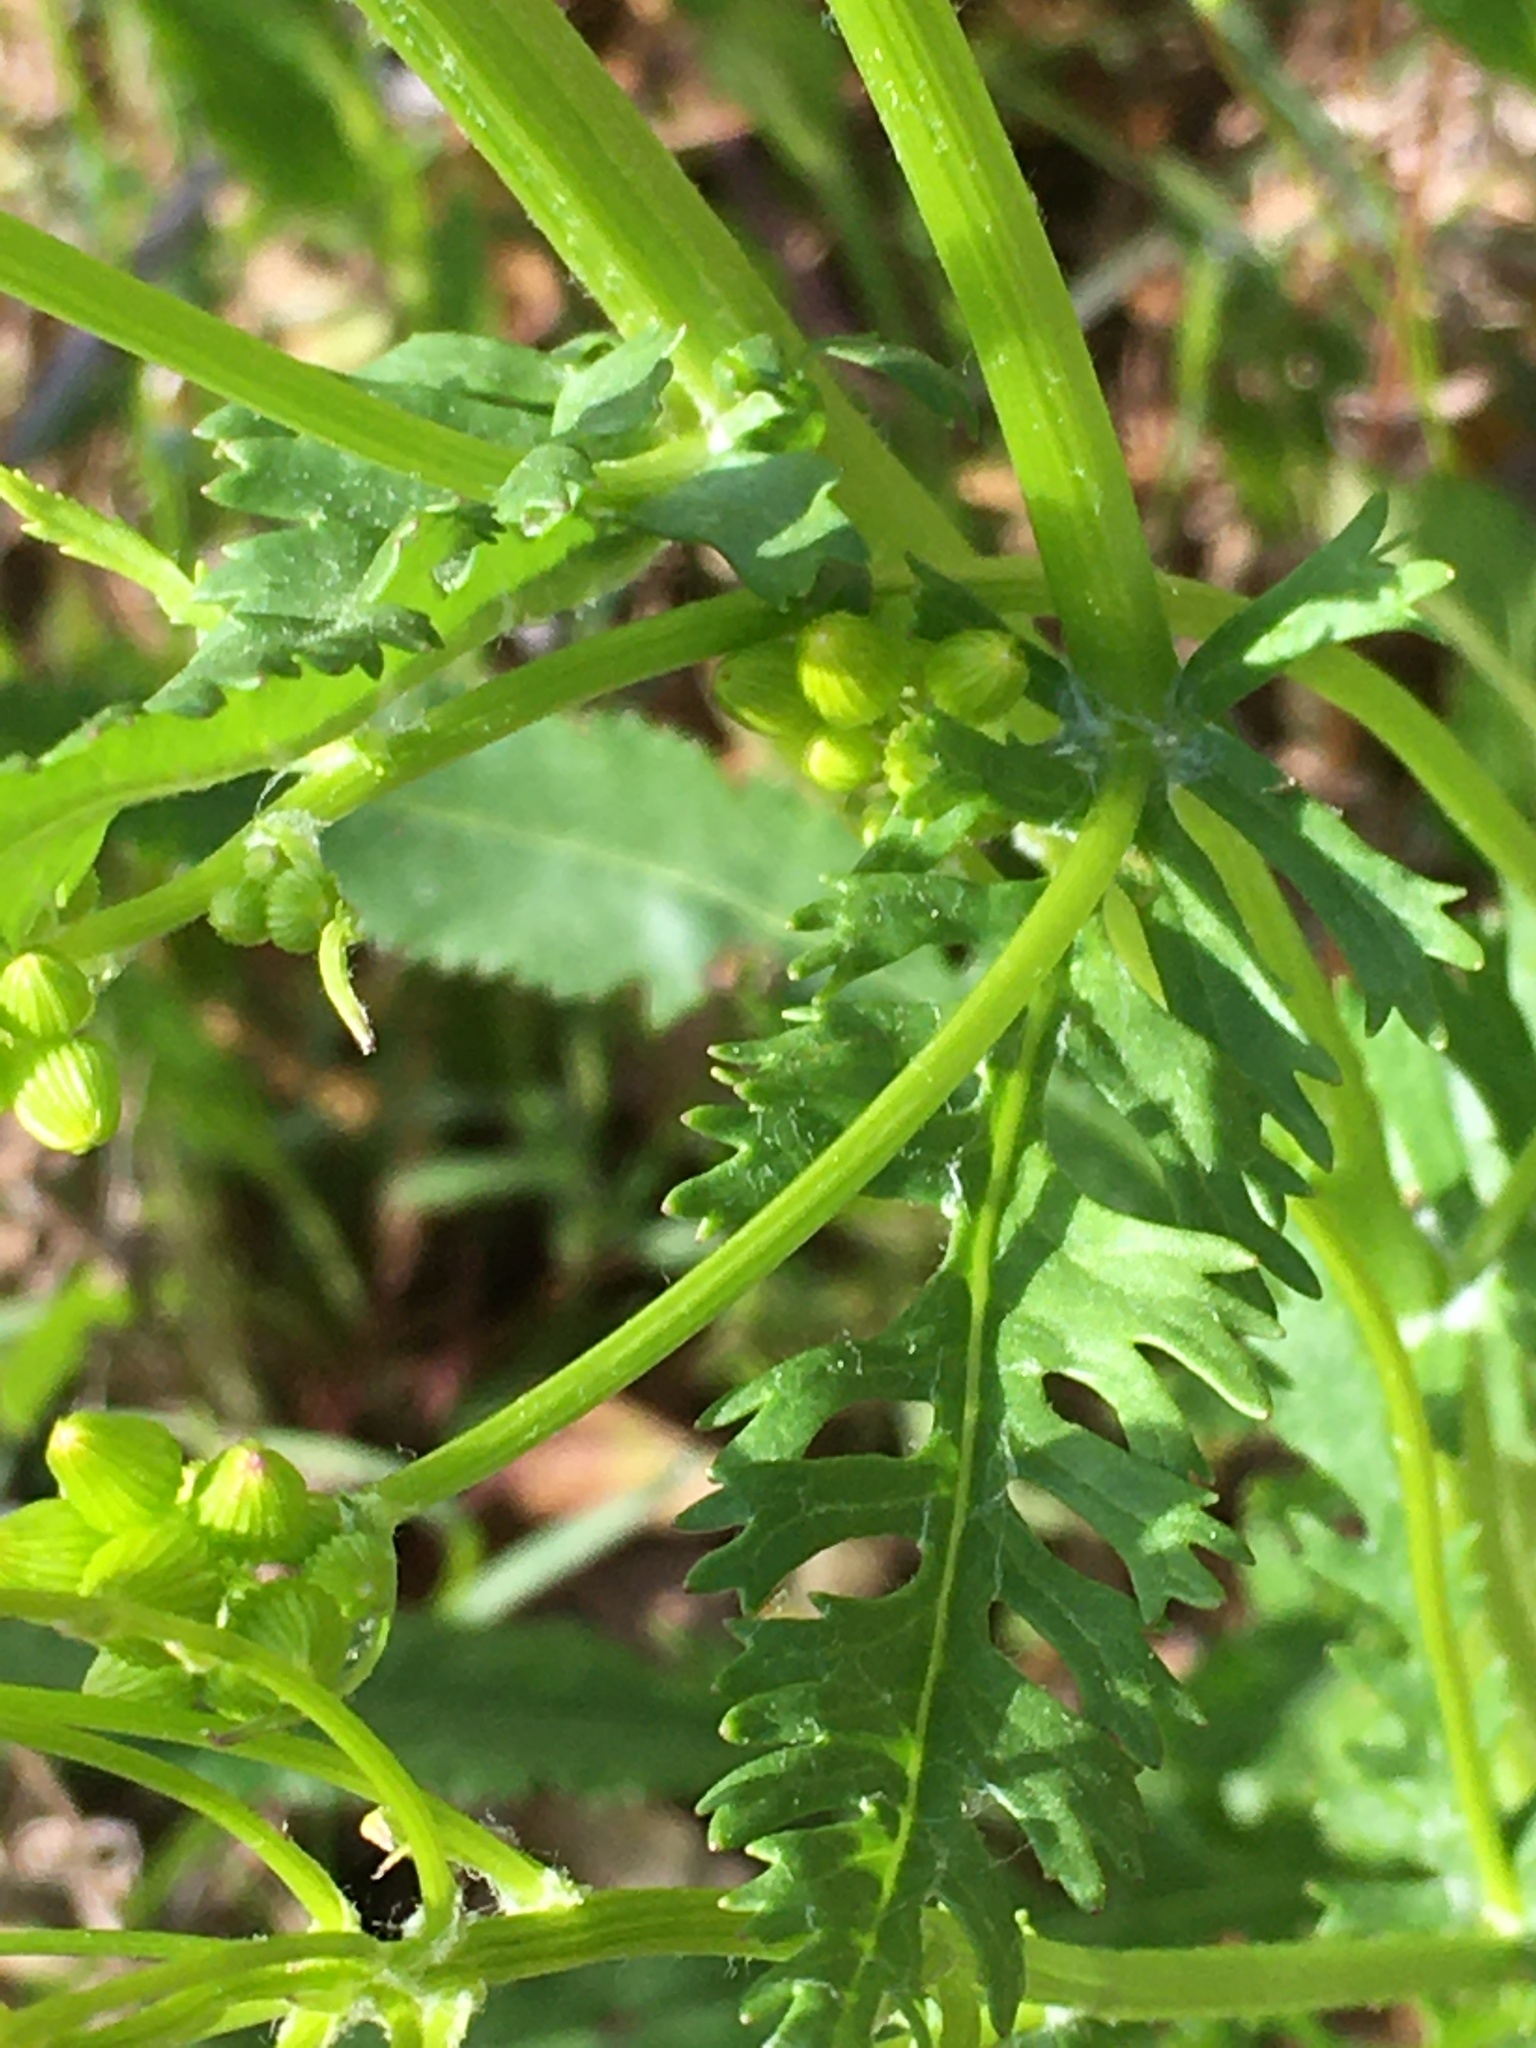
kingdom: Plantae
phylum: Tracheophyta
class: Magnoliopsida
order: Asterales
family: Asteraceae
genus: Packera
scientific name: Packera anonyma
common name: Small ragwort
